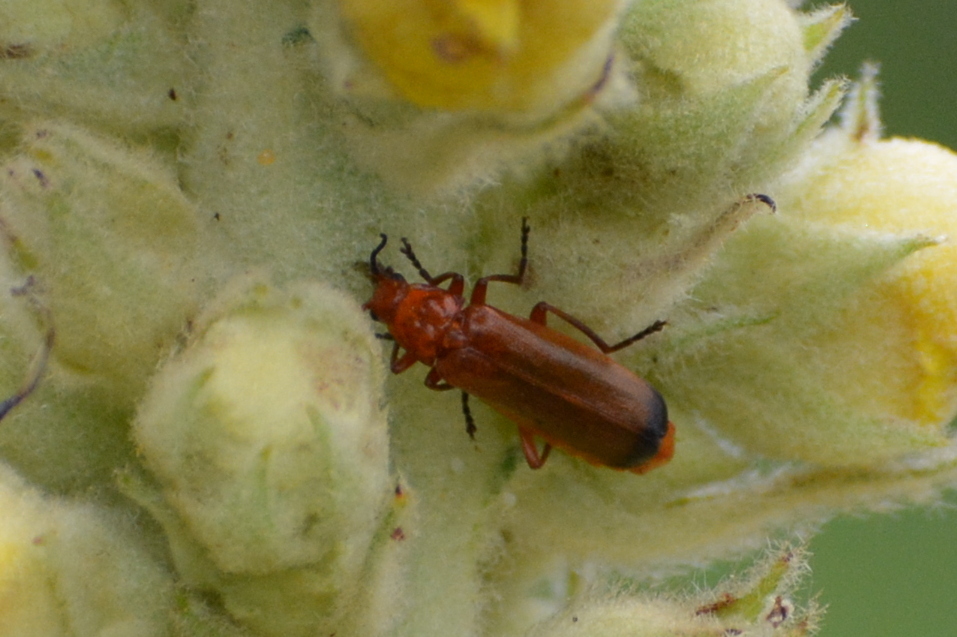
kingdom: Animalia
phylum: Arthropoda
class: Insecta
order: Coleoptera
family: Cantharidae
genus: Rhagonycha
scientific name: Rhagonycha fulva
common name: Common red soldier beetle
